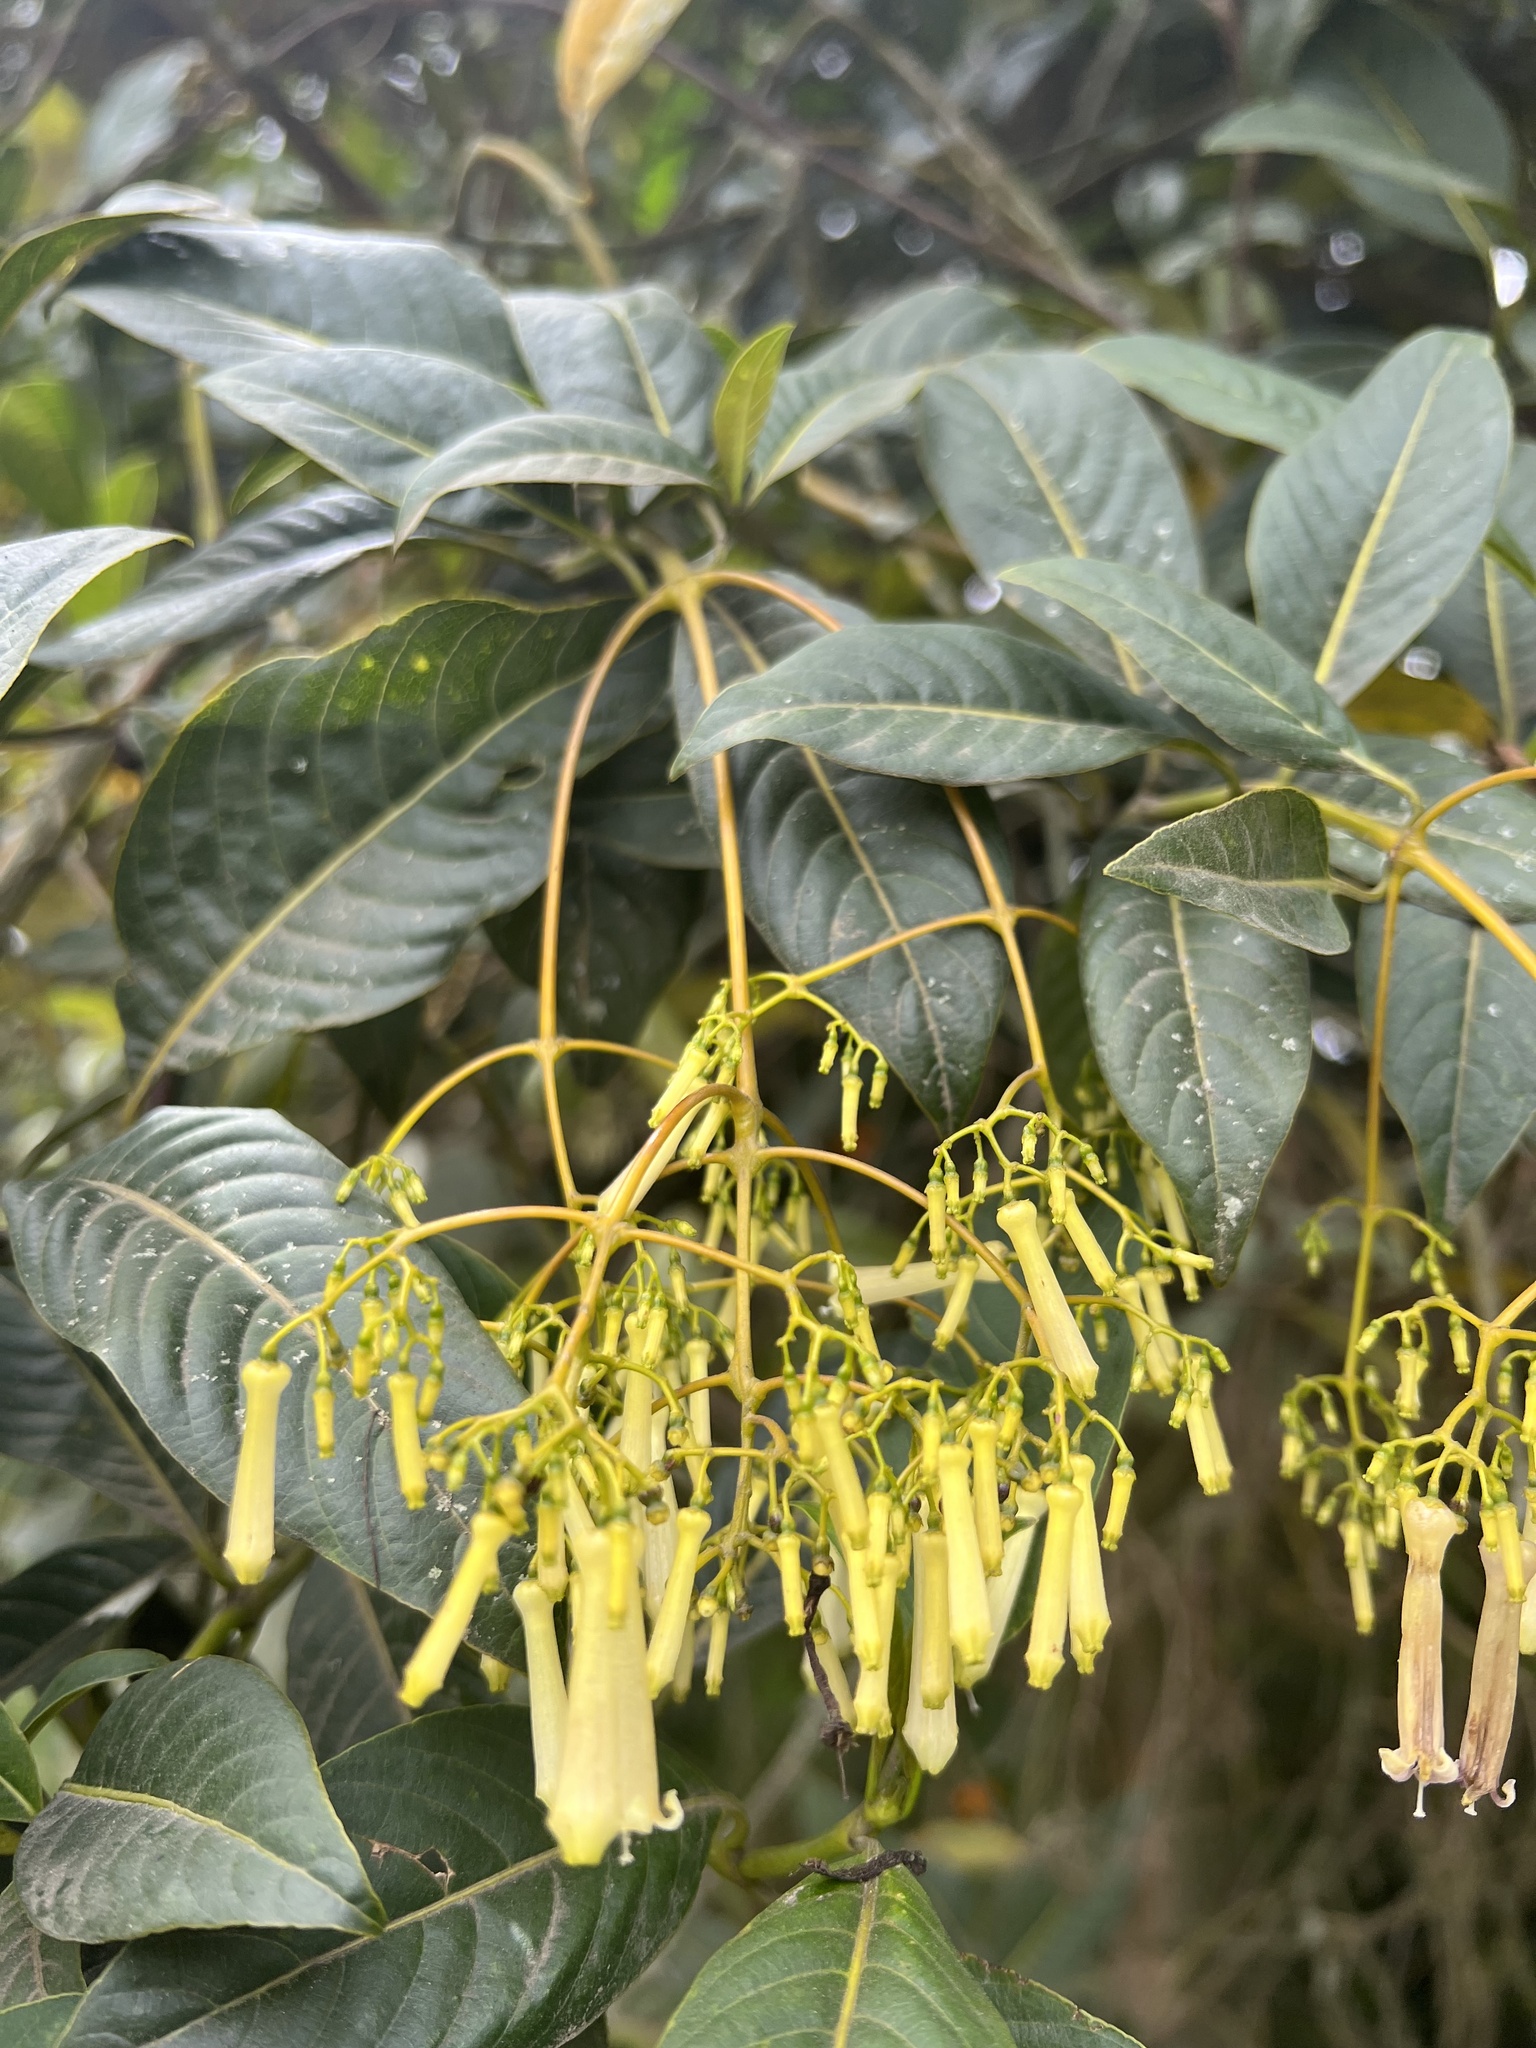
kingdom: Plantae
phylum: Tracheophyta
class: Magnoliopsida
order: Gentianales
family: Rubiaceae
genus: Palicourea
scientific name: Palicourea lineariflora
